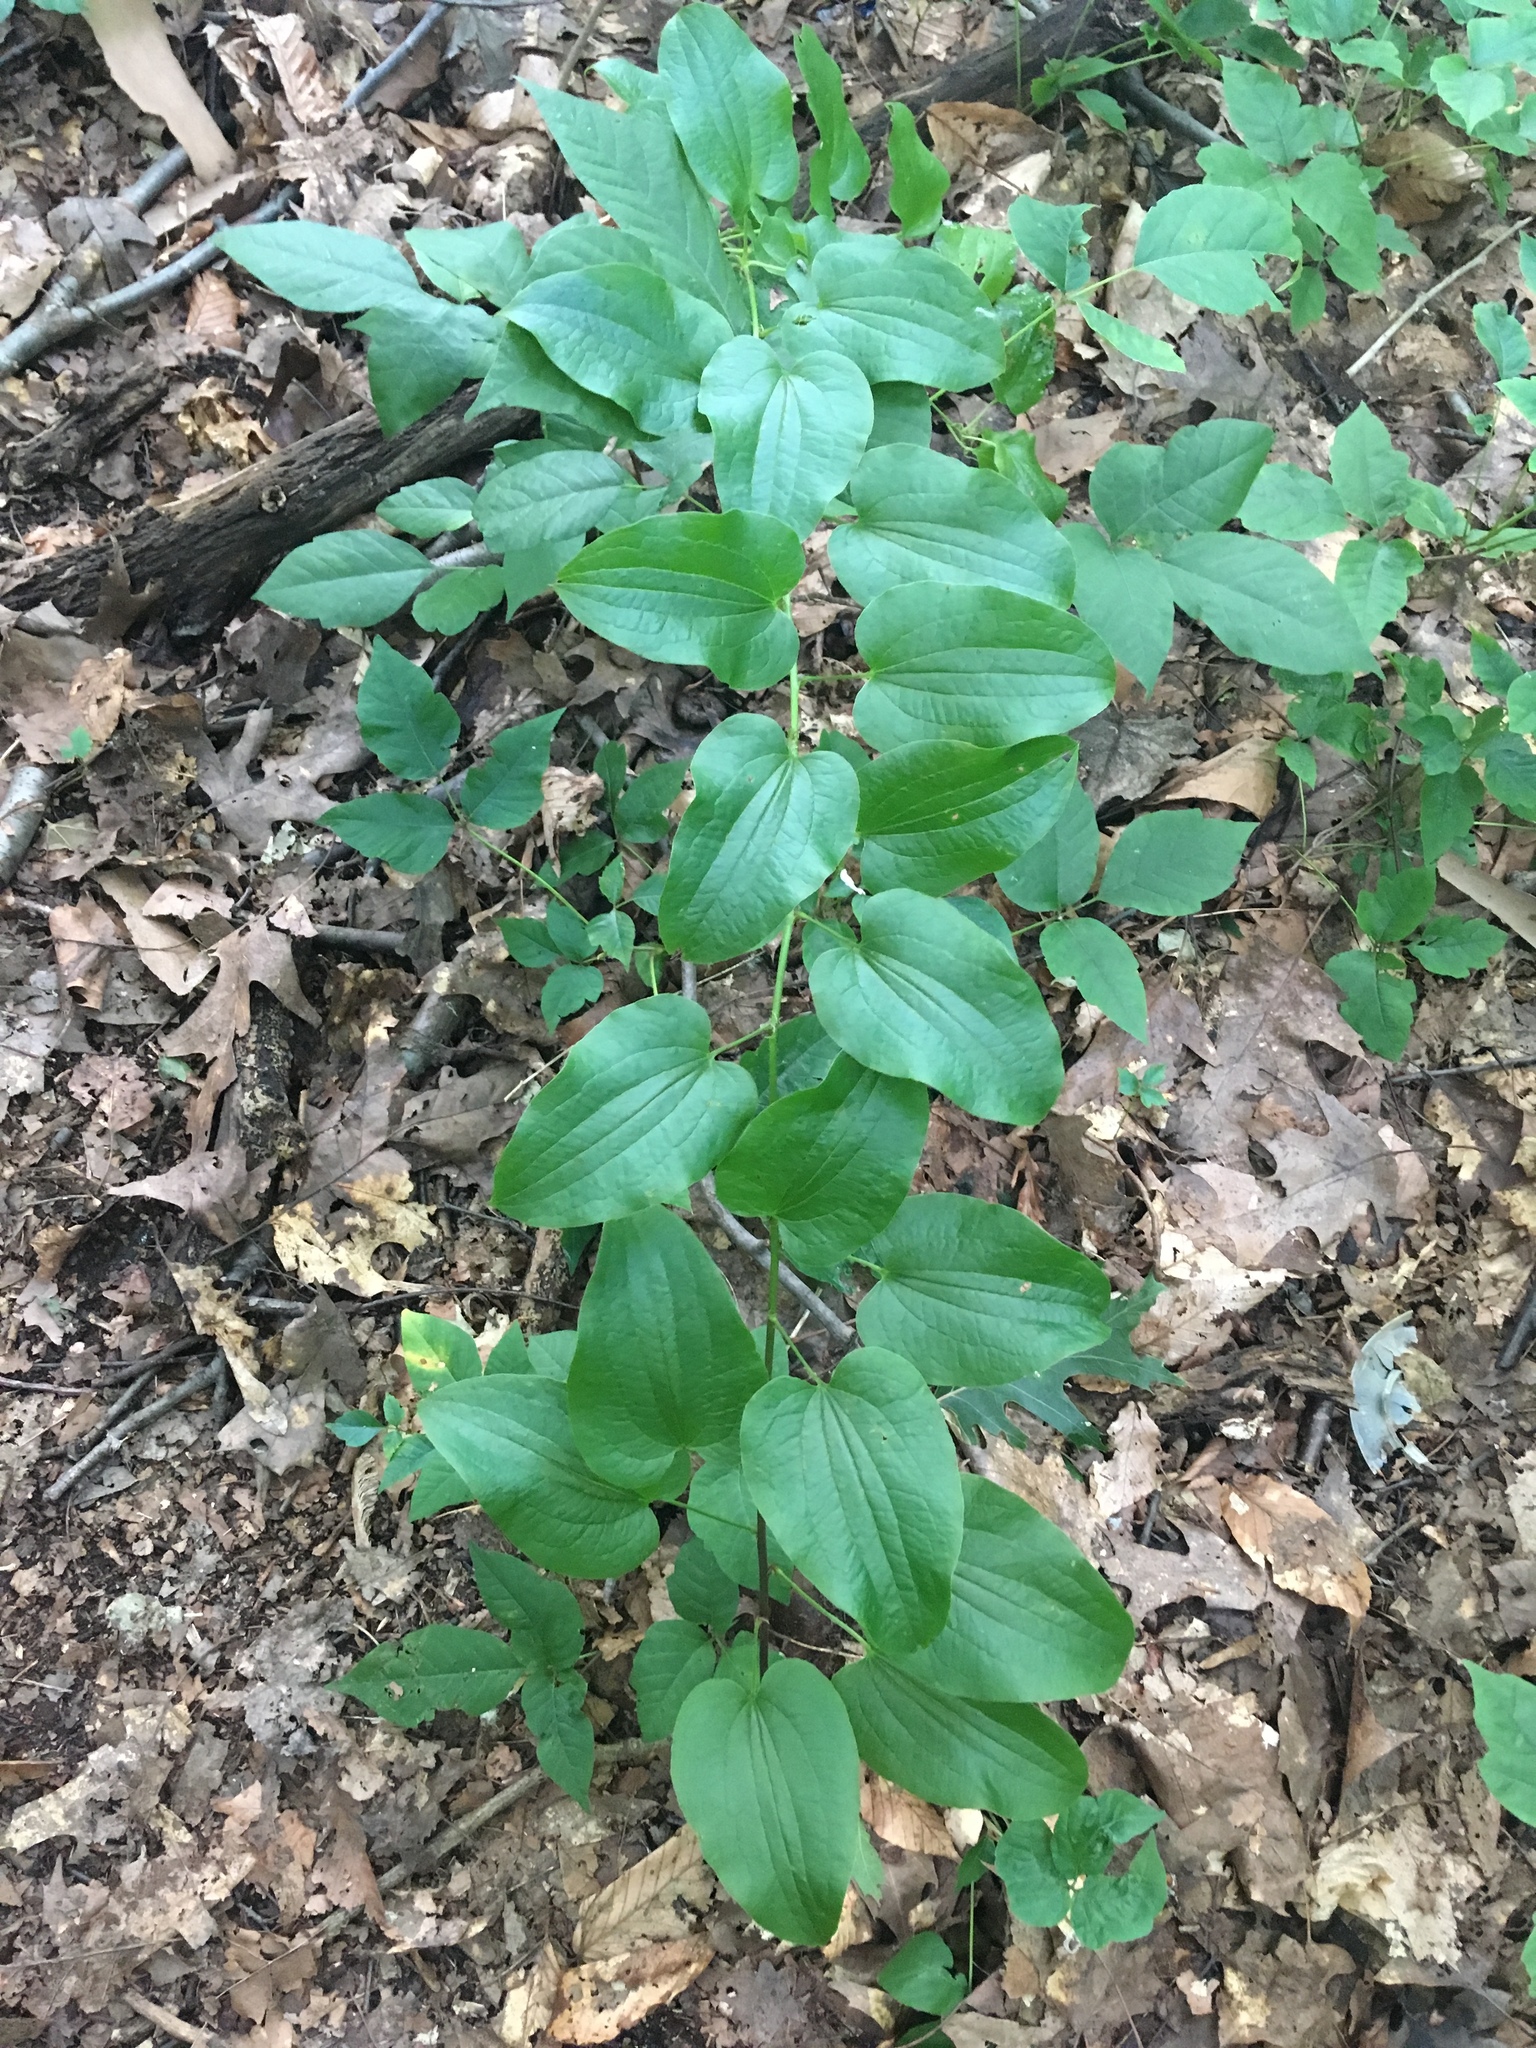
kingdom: Plantae
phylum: Tracheophyta
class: Liliopsida
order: Liliales
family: Smilacaceae
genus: Smilax
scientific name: Smilax herbacea
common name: Jacob's-ladder
